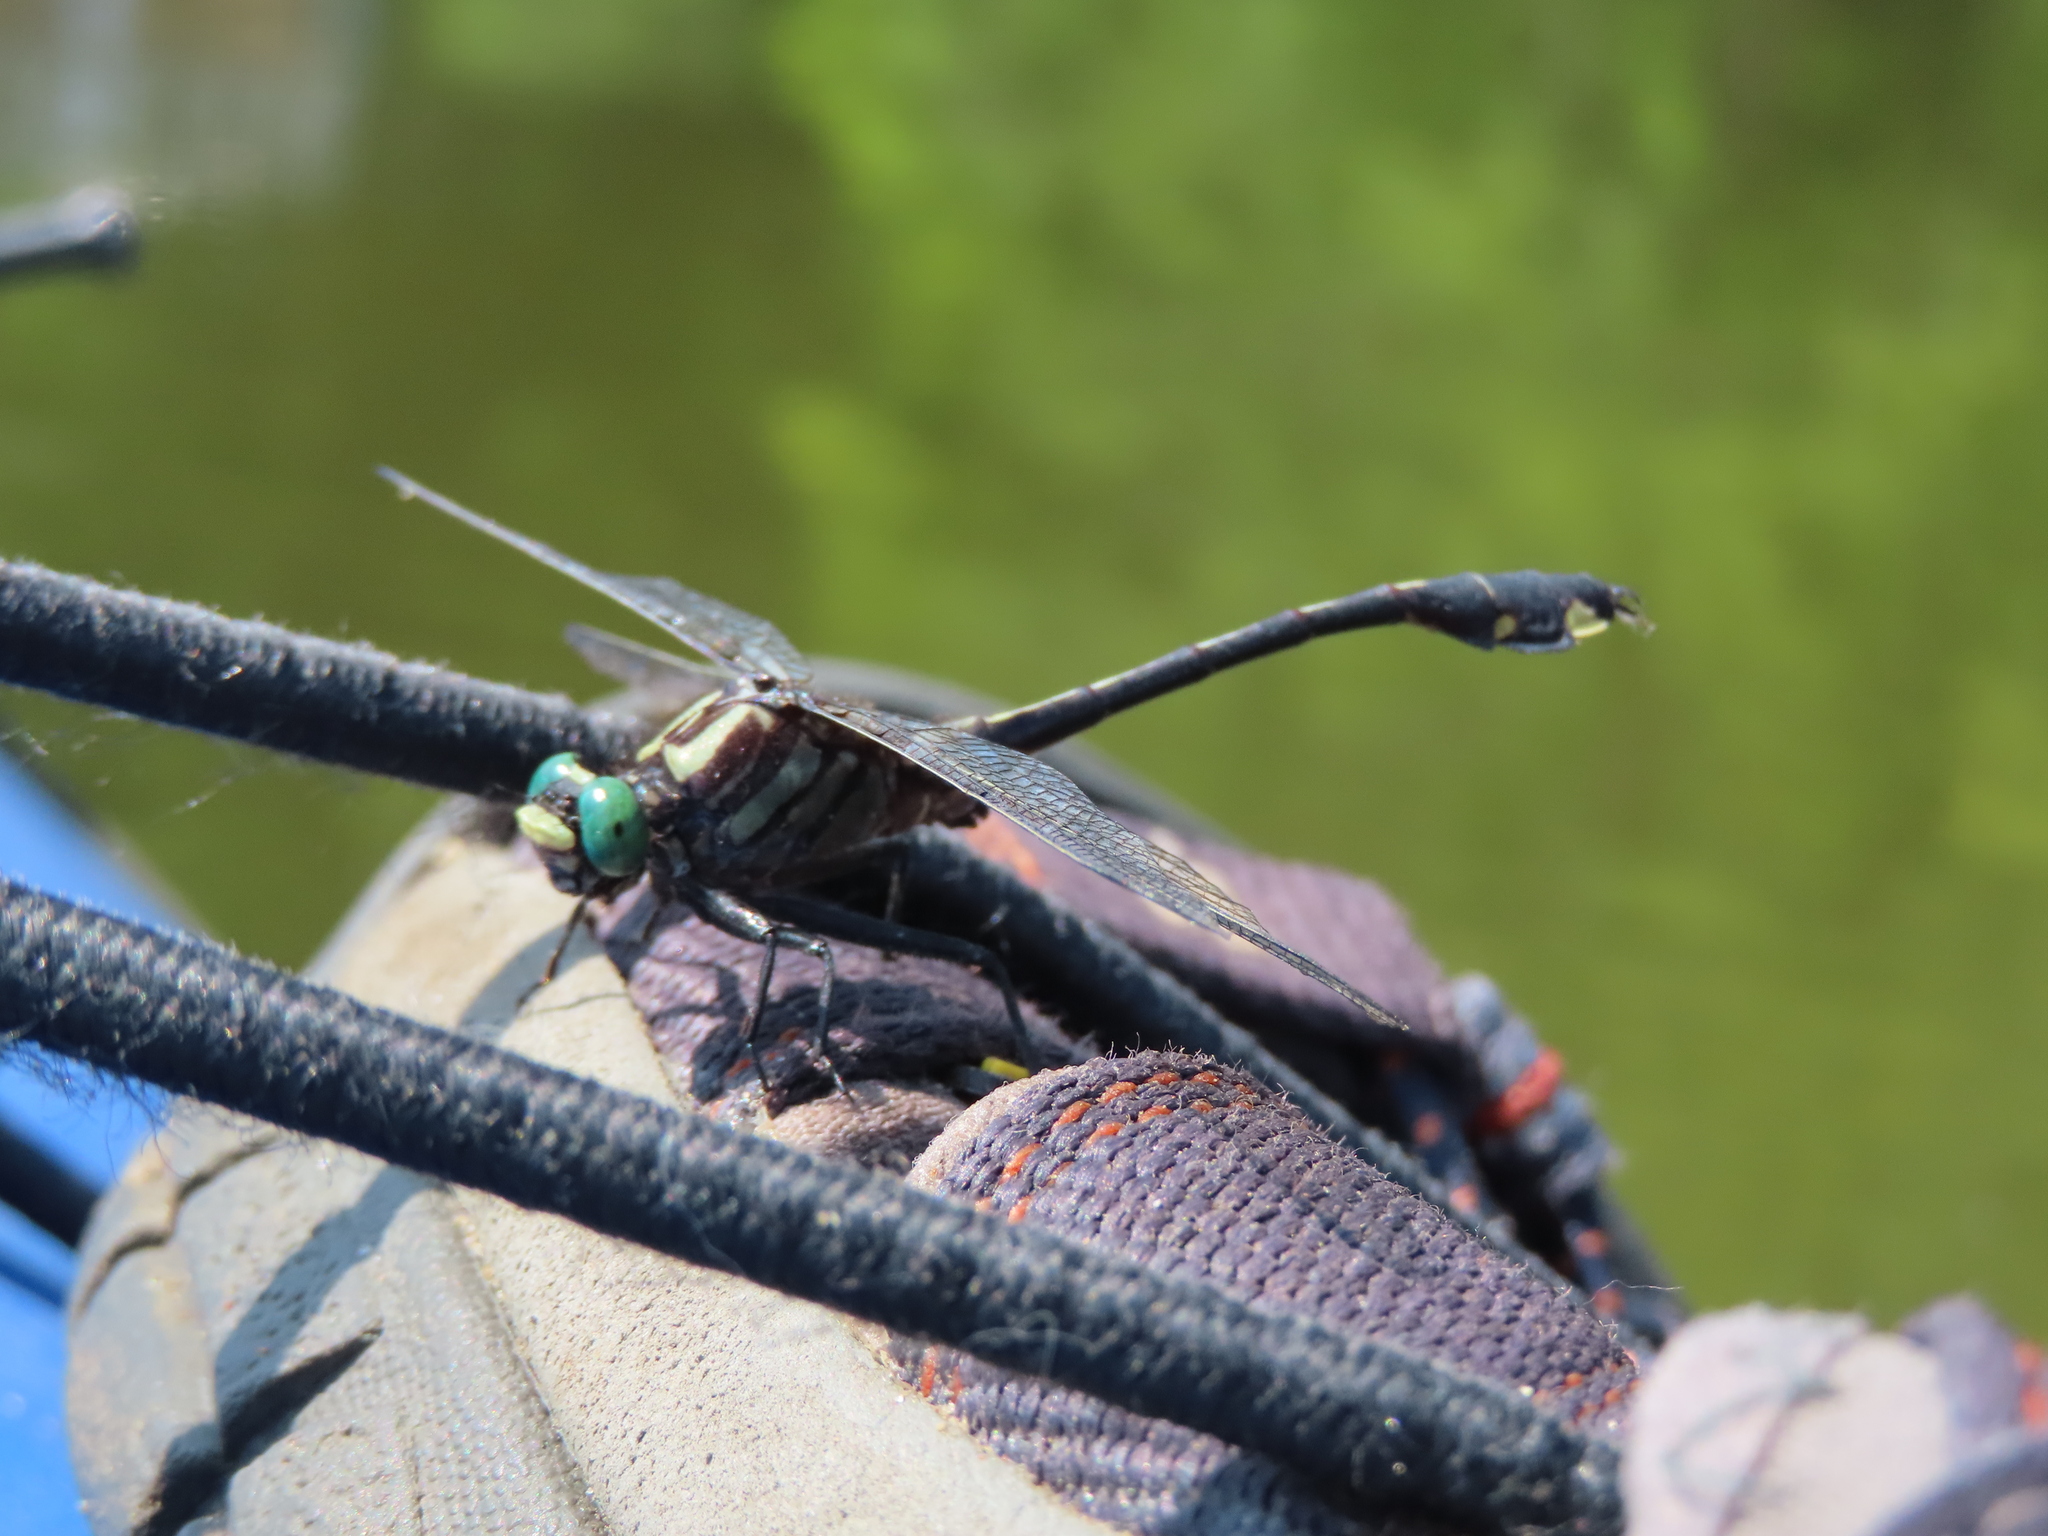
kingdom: Animalia
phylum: Arthropoda
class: Insecta
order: Odonata
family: Gomphidae
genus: Gomphurus
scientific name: Gomphurus vastus
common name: Cobra clubtail
